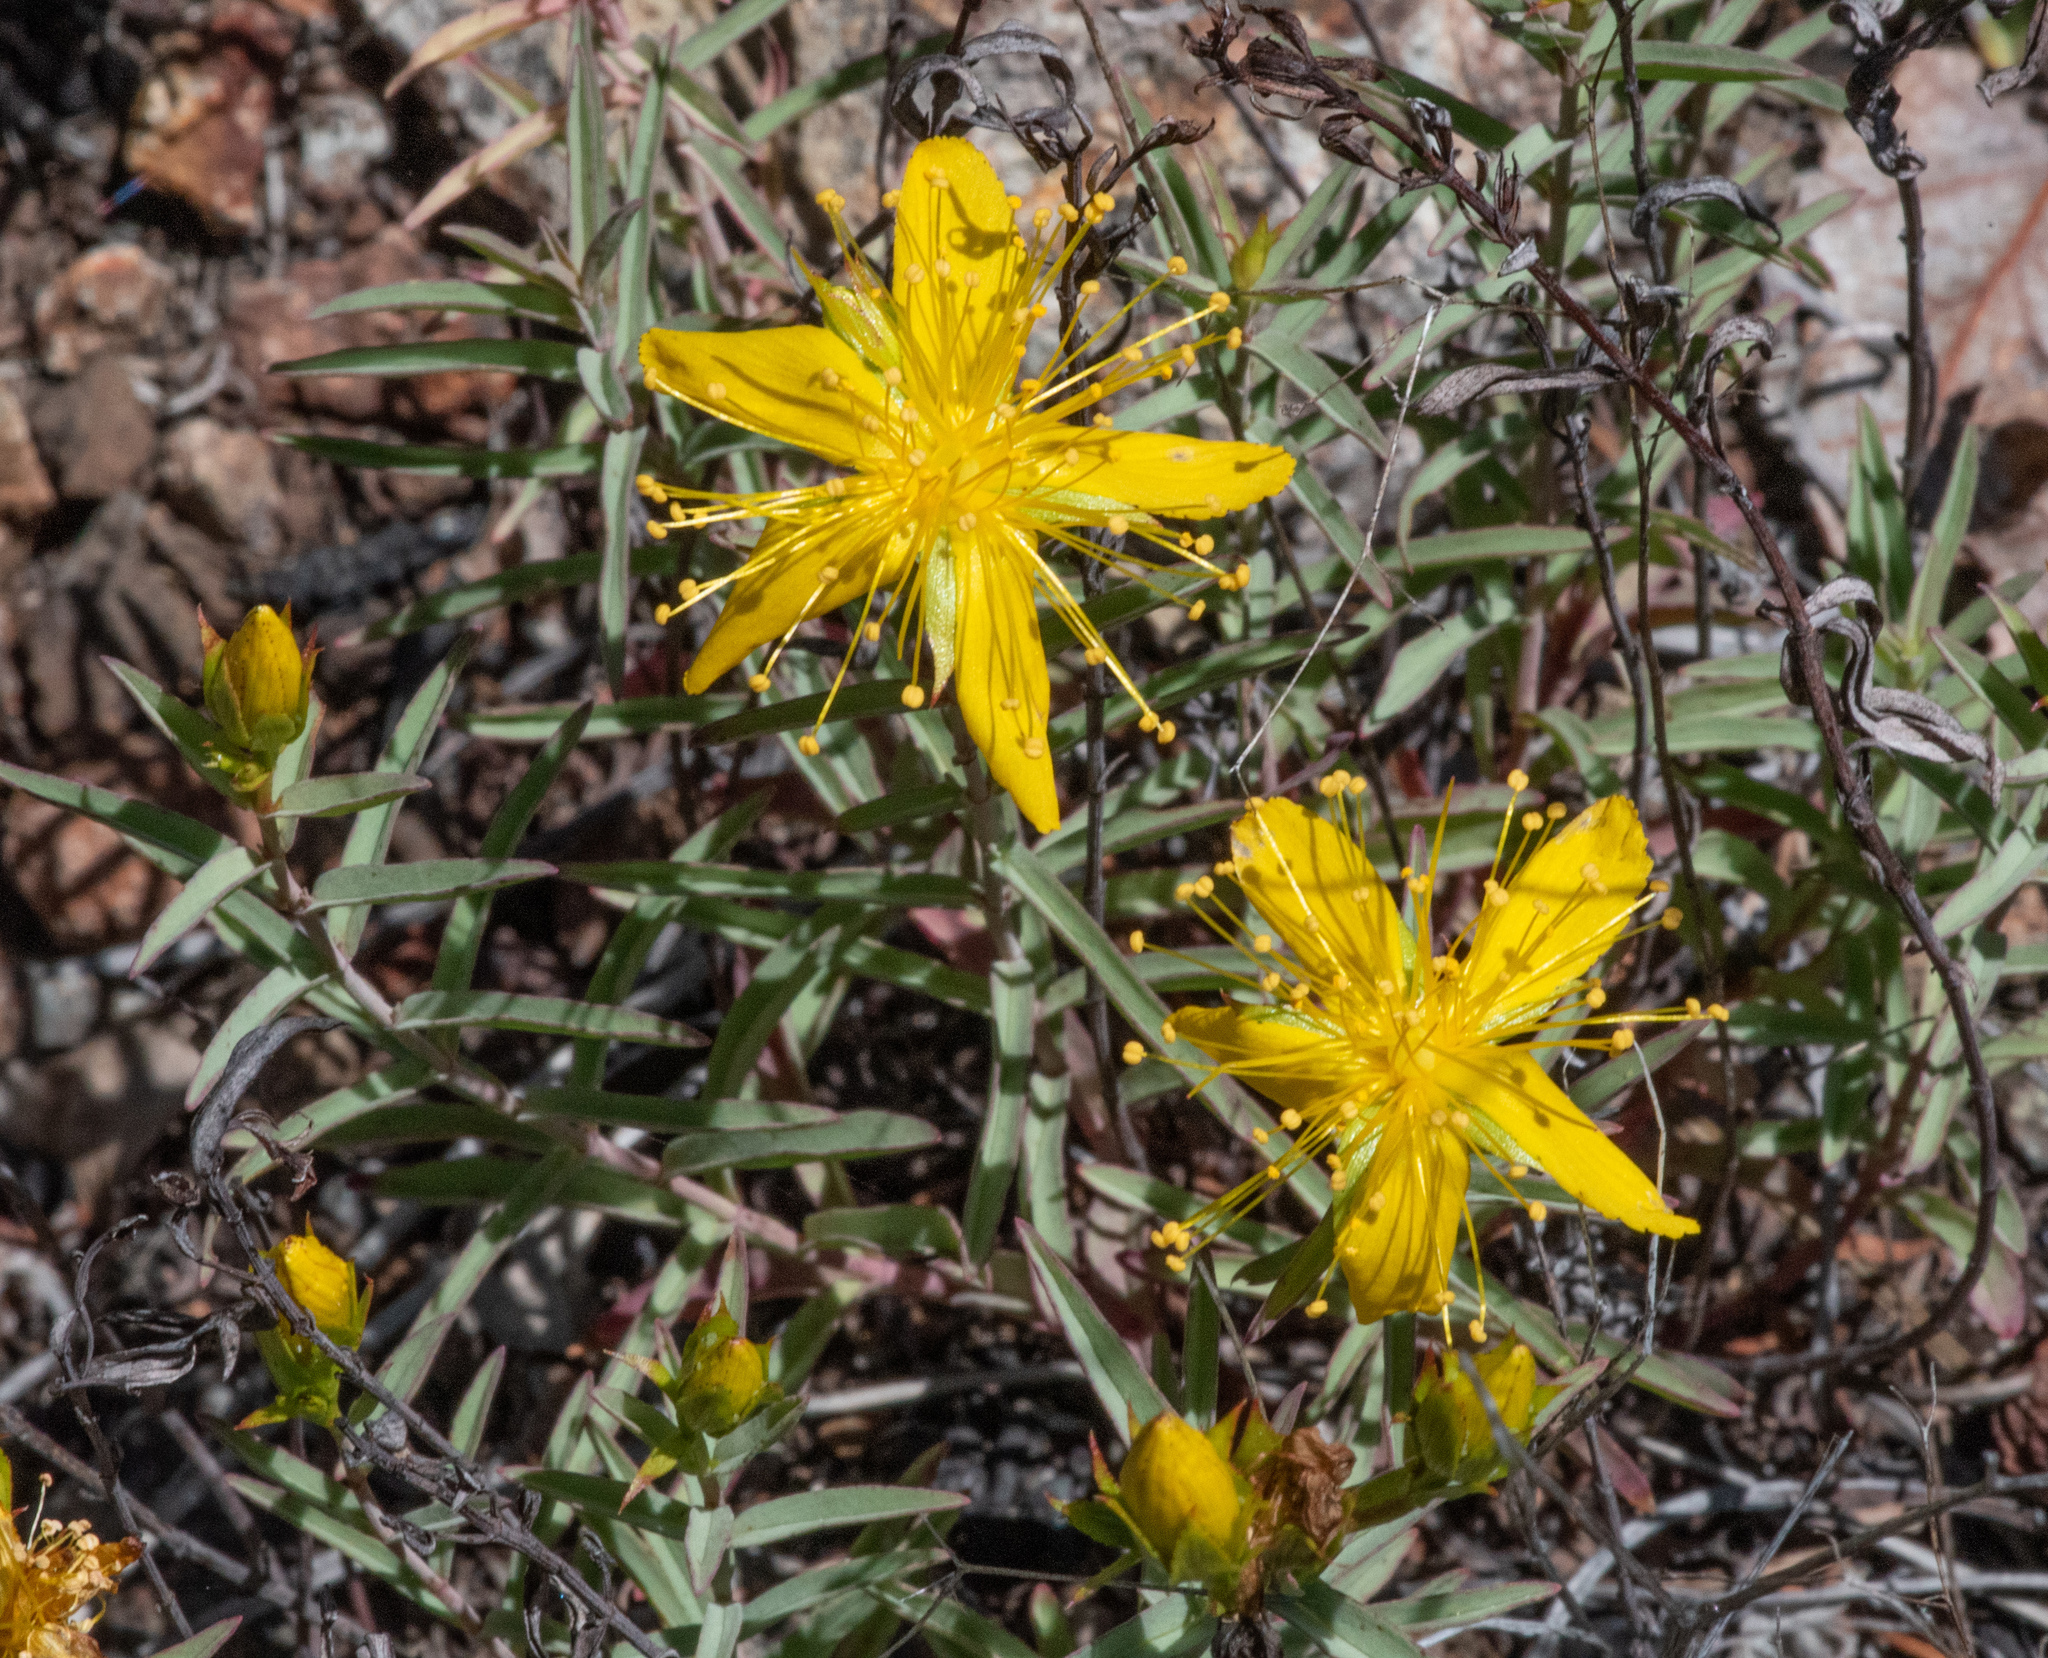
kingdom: Plantae
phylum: Tracheophyta
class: Magnoliopsida
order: Malpighiales
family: Hypericaceae
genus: Hypericum
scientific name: Hypericum concinnum
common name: Gold-wire
